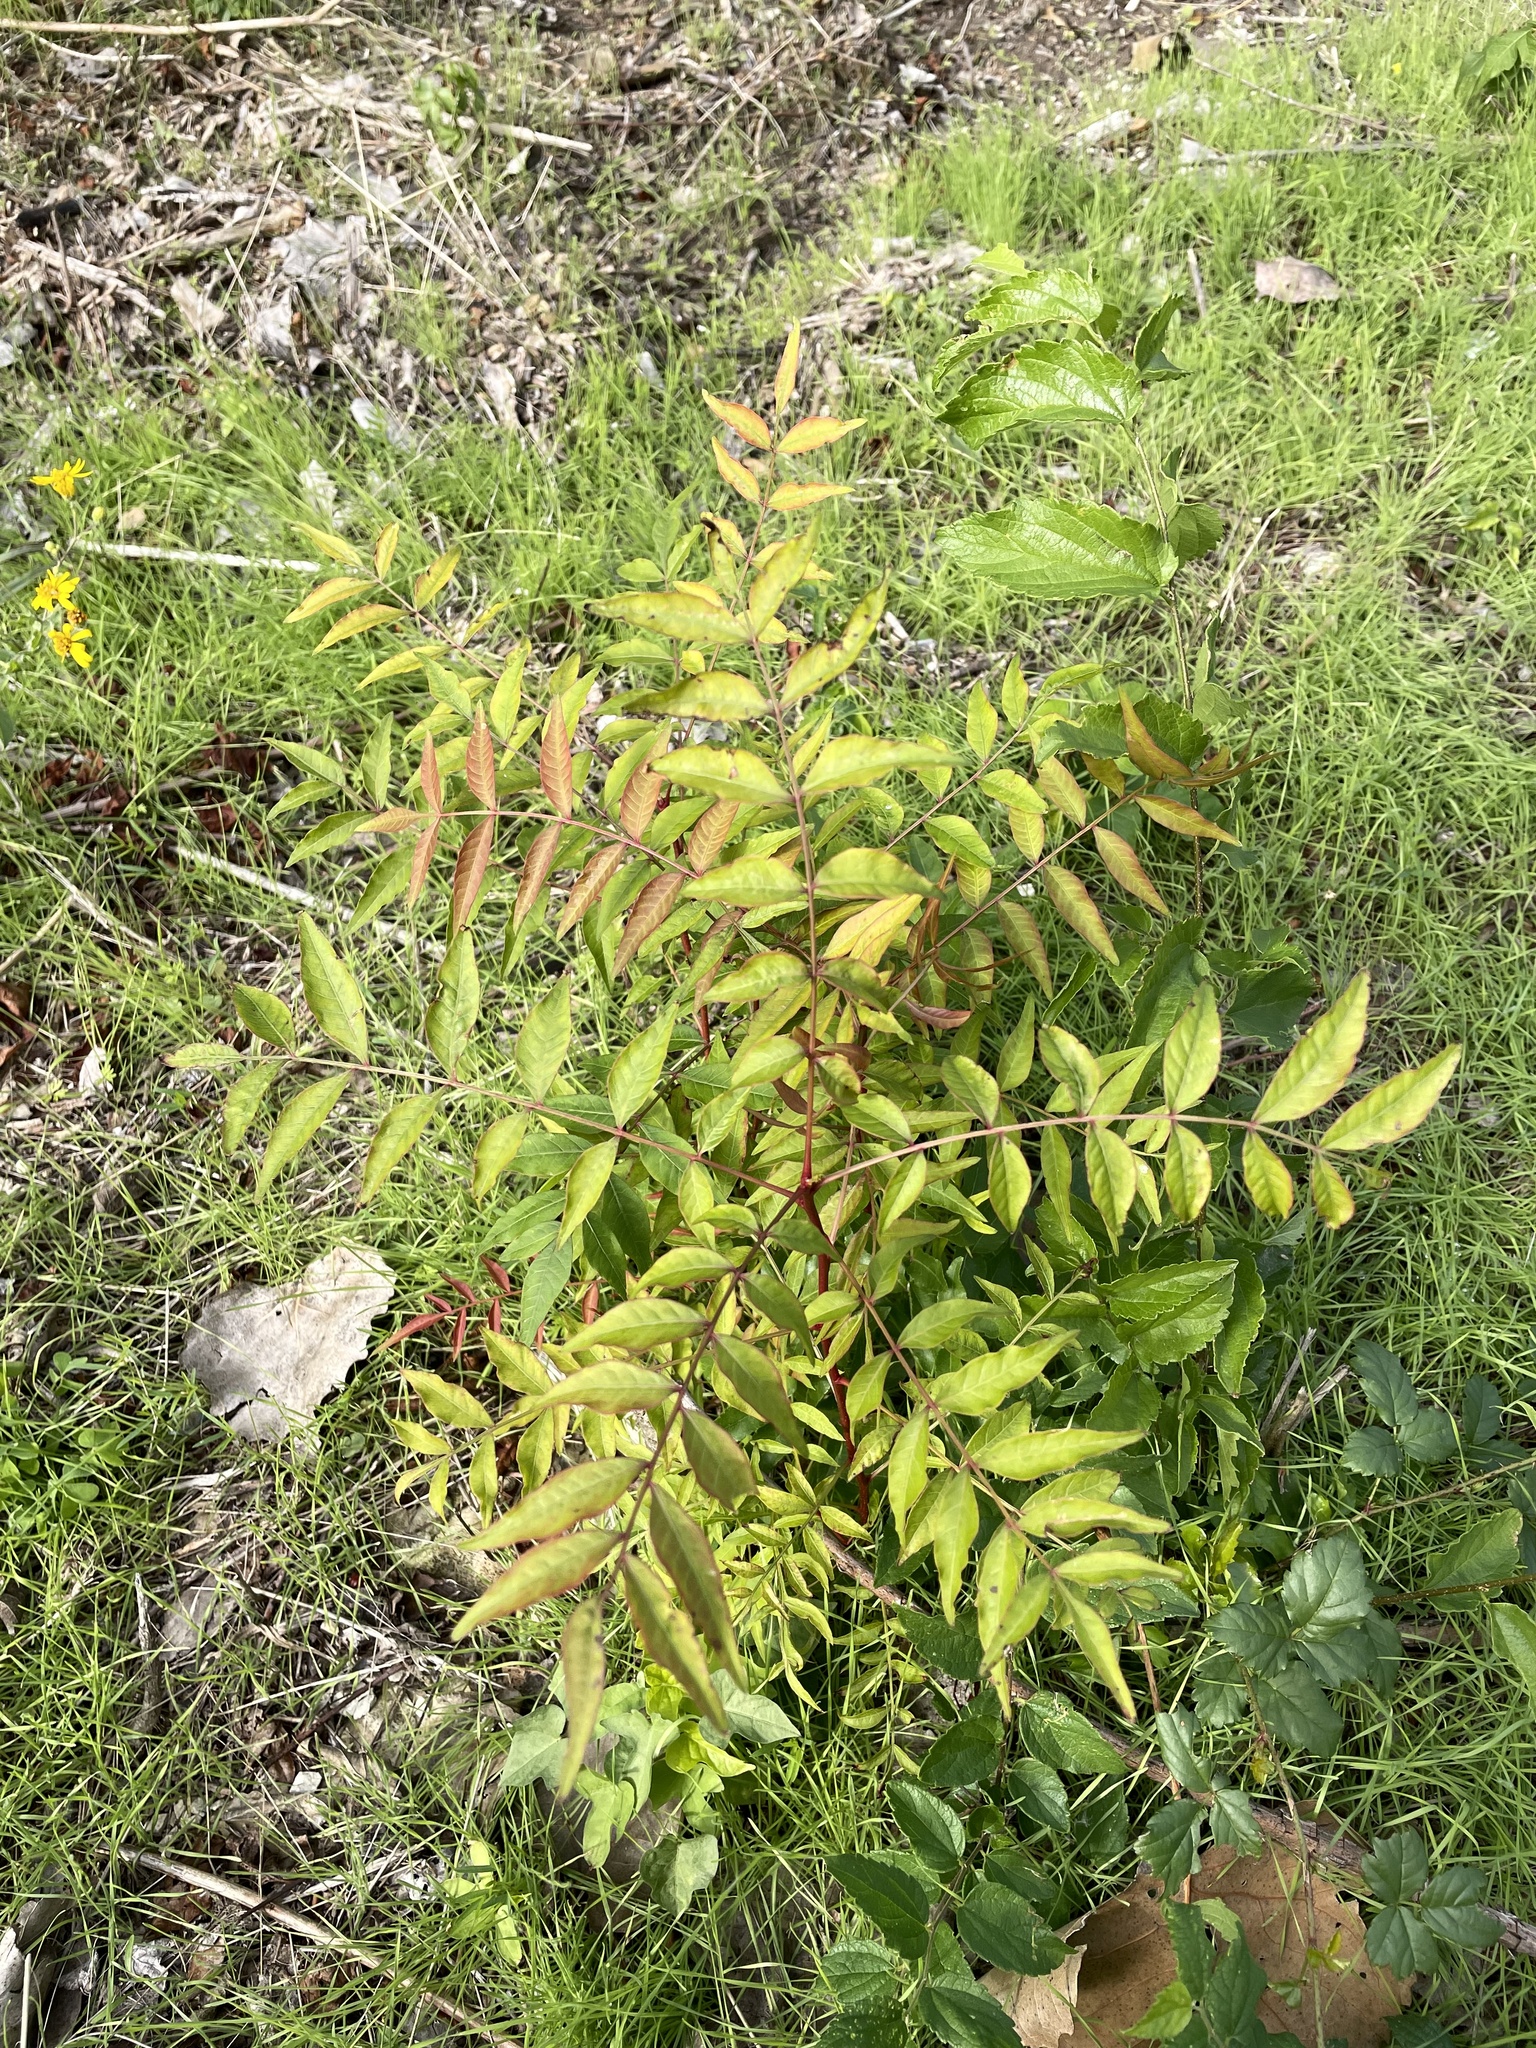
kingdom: Plantae
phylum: Tracheophyta
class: Magnoliopsida
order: Sapindales
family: Anacardiaceae
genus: Pistacia
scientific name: Pistacia chinensis
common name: Chinese pistache
